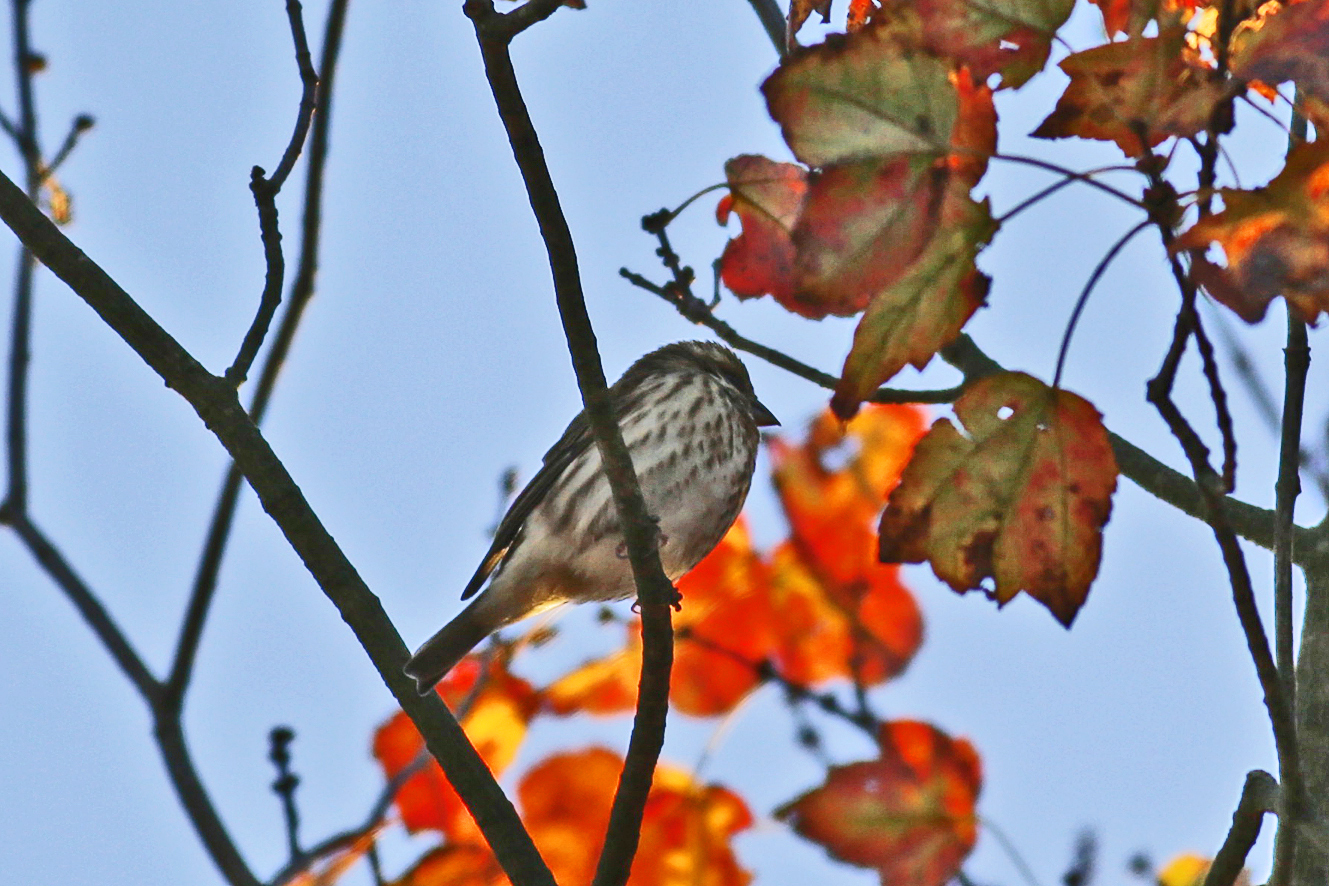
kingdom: Animalia
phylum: Chordata
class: Aves
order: Passeriformes
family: Fringillidae
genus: Haemorhous
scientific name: Haemorhous purpureus
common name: Purple finch
